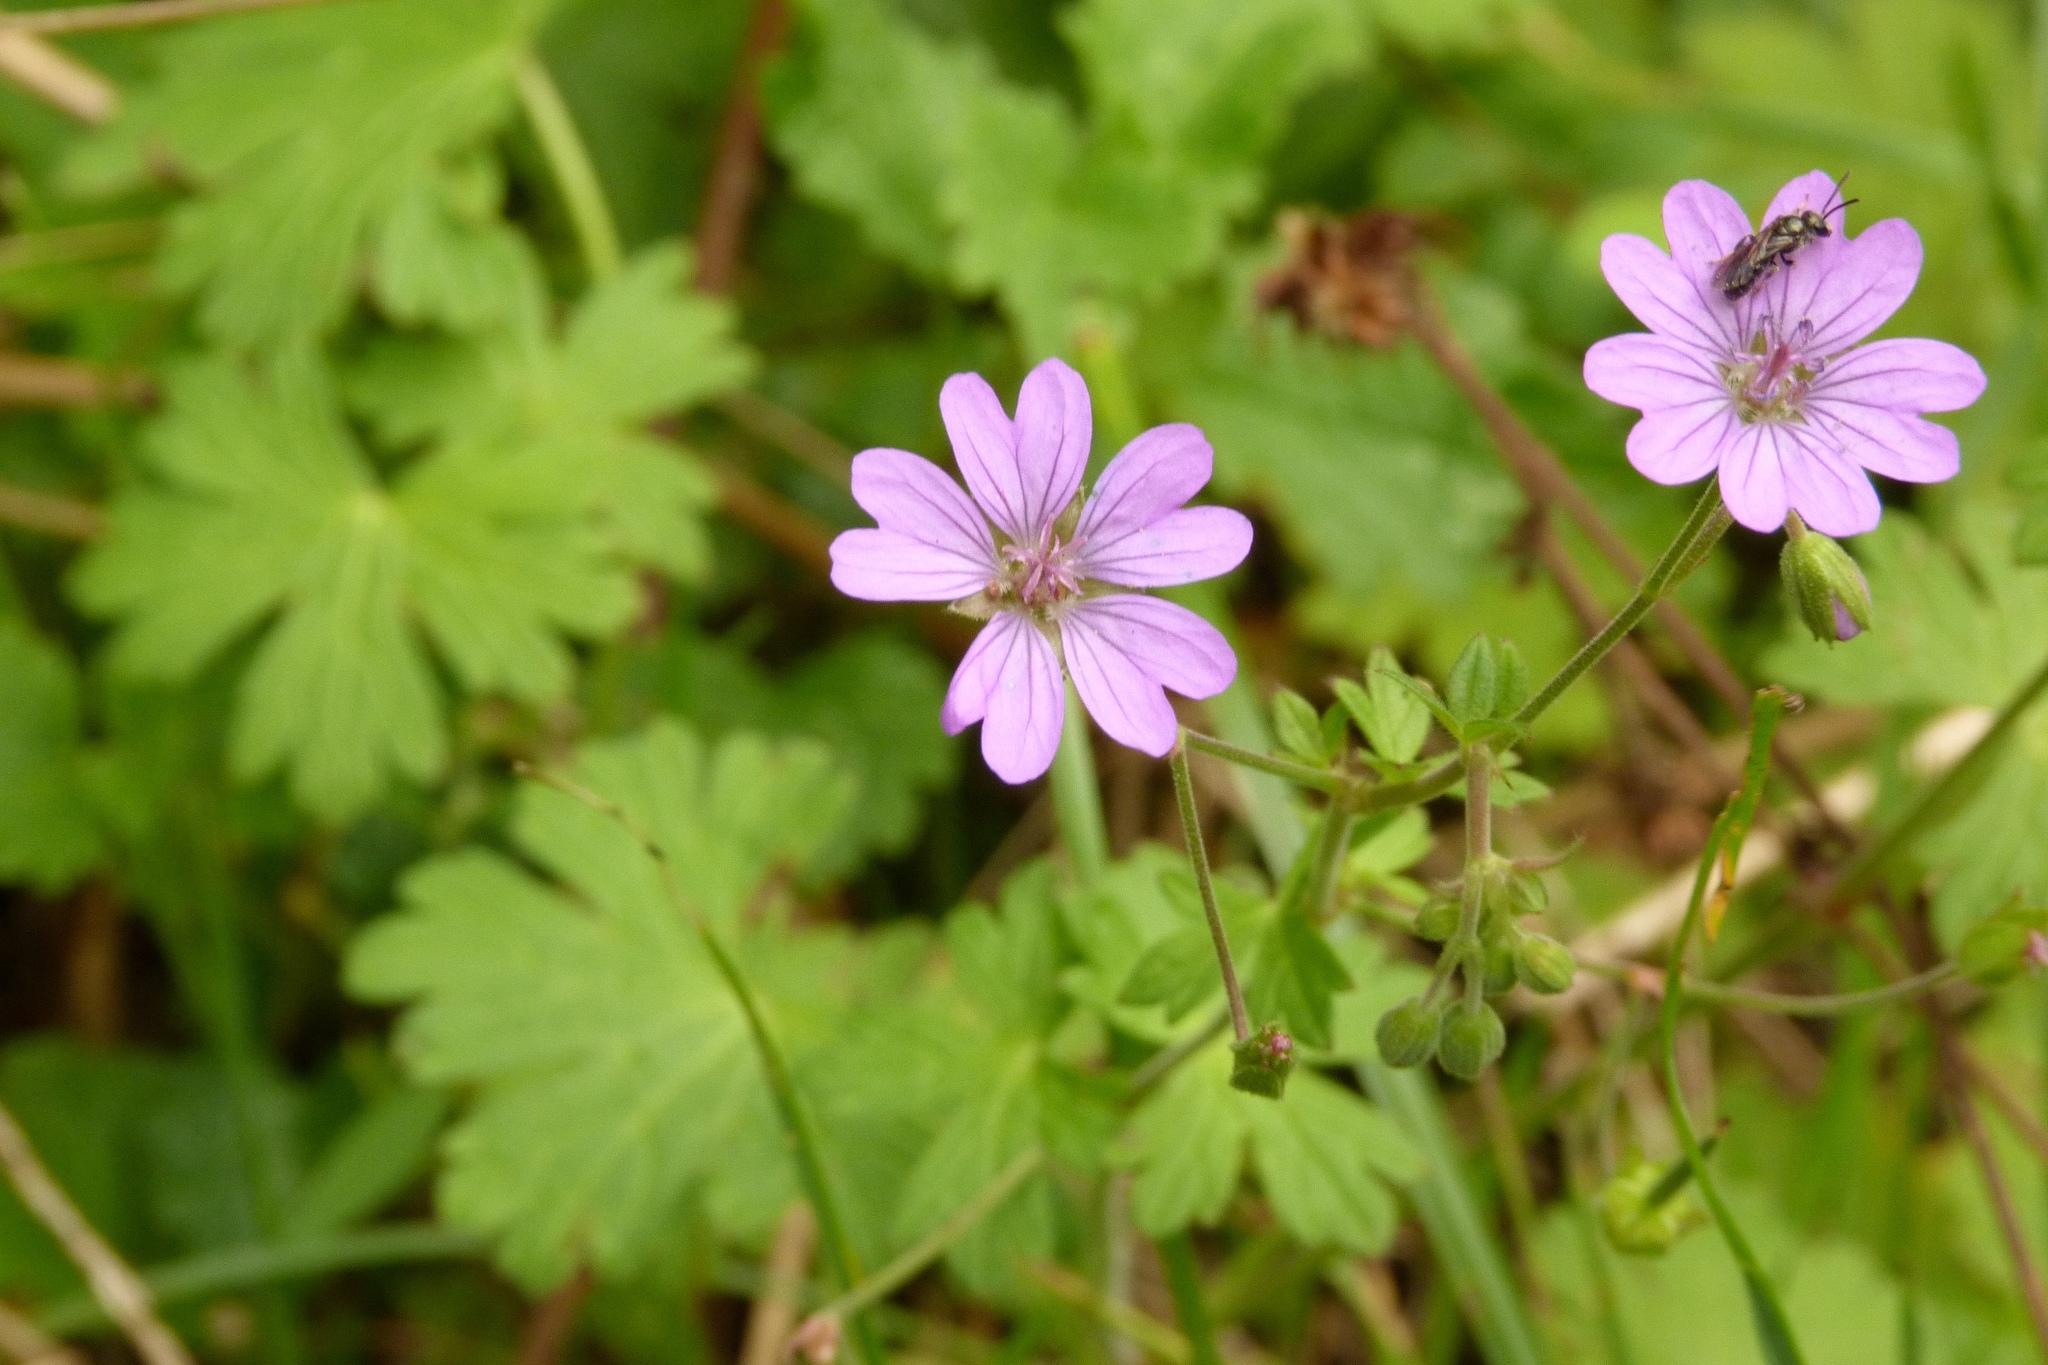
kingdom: Plantae
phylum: Tracheophyta
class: Magnoliopsida
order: Geraniales
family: Geraniaceae
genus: Geranium
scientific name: Geranium molle
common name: Dove's-foot crane's-bill
